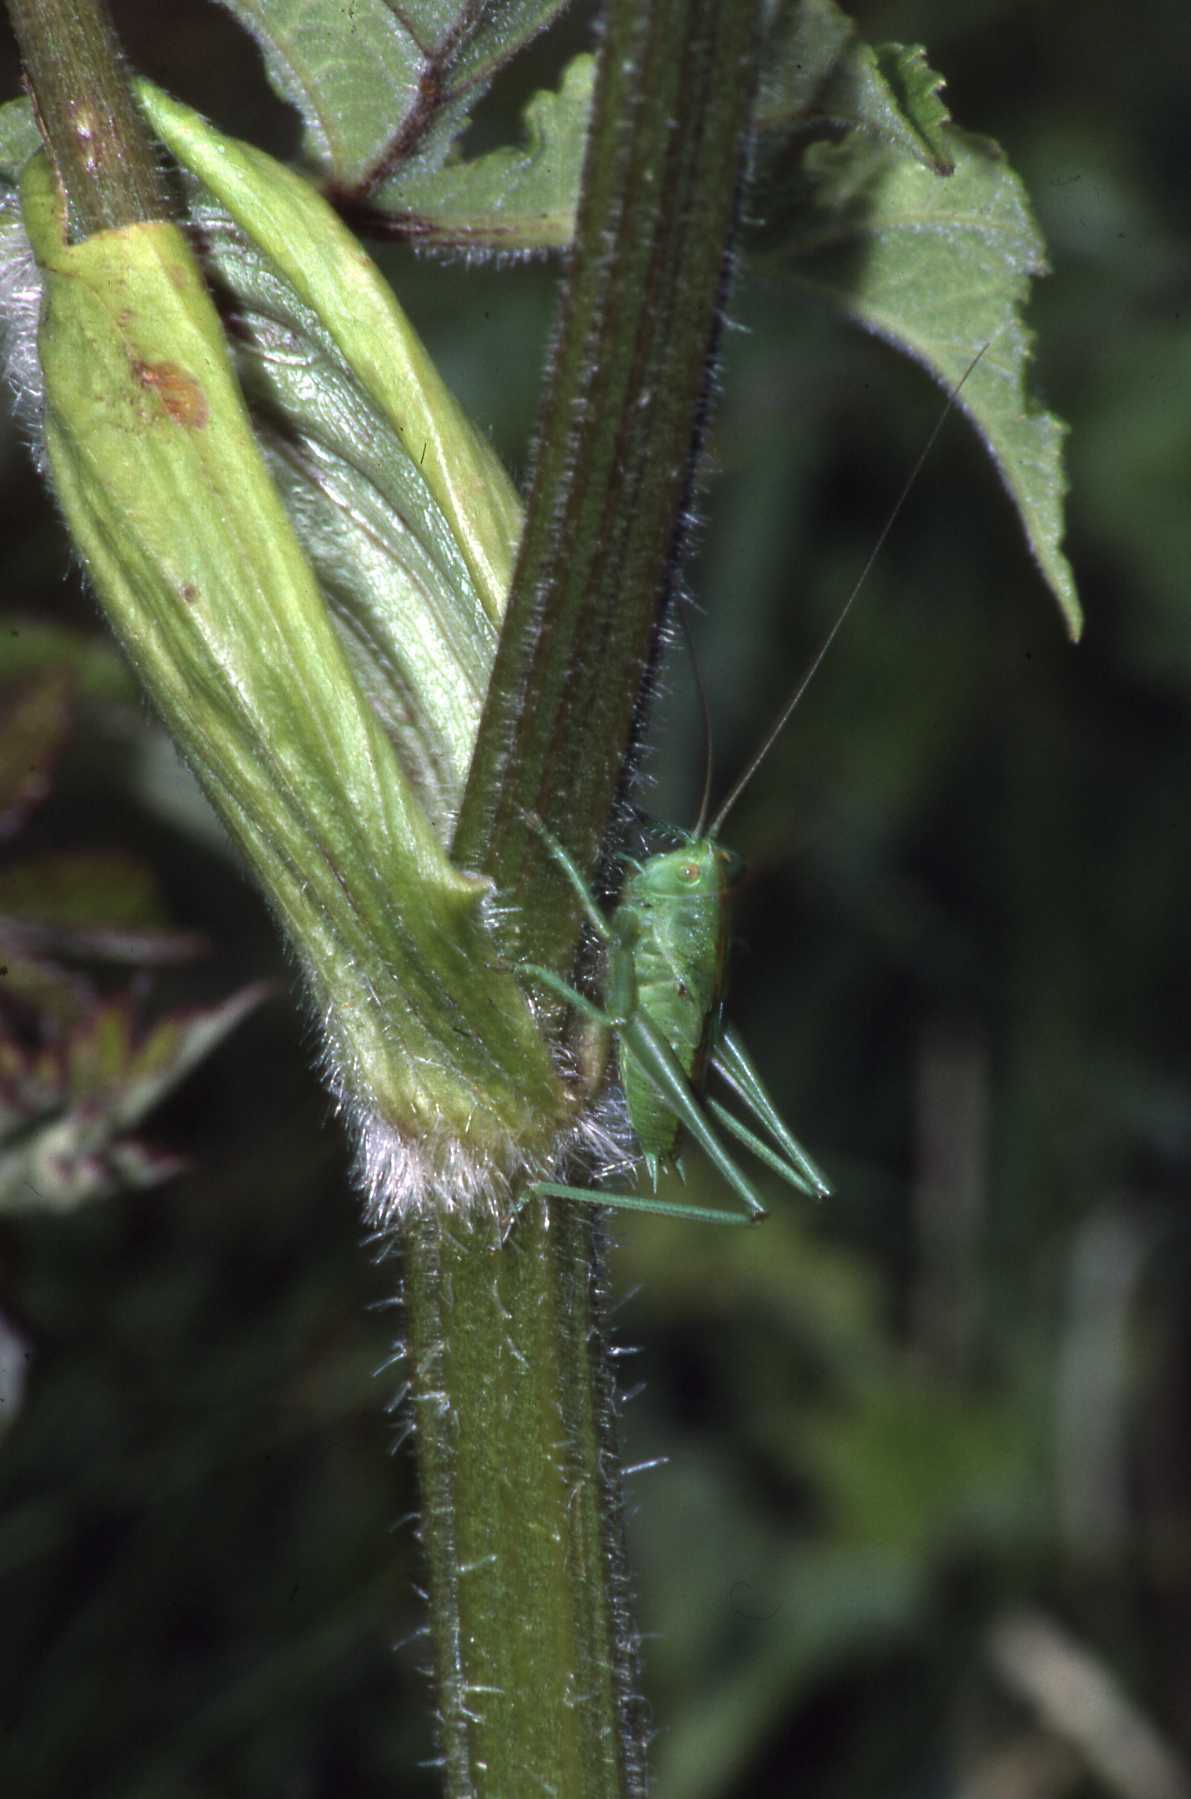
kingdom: Animalia
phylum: Arthropoda
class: Insecta
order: Orthoptera
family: Tettigoniidae
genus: Tettigonia
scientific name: Tettigonia viridissima
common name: Great green bush-cricket
